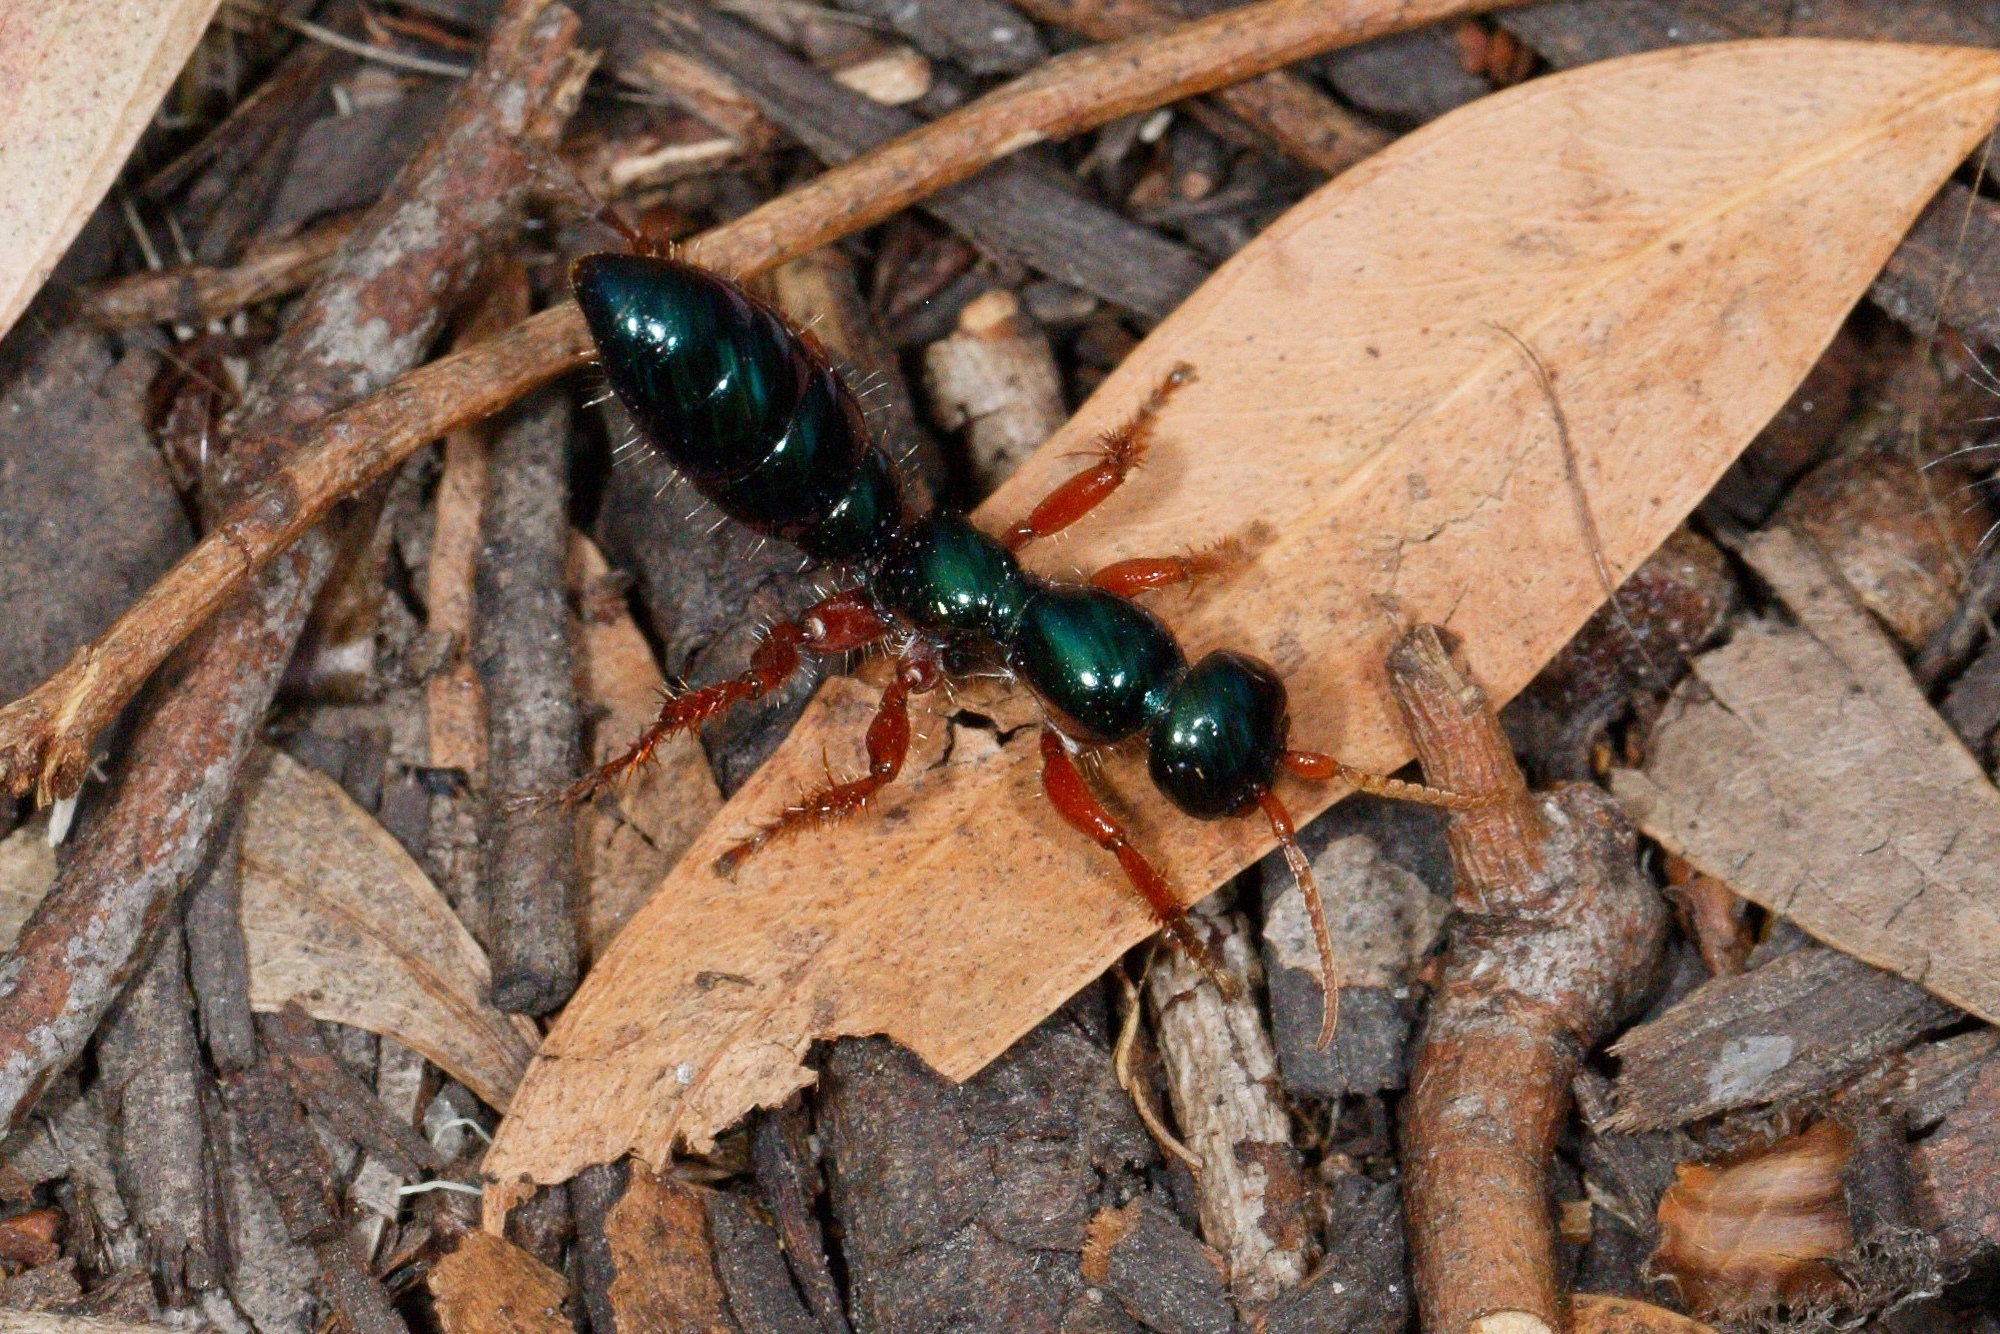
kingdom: Animalia
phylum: Arthropoda
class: Insecta
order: Hymenoptera
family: Tiphiidae
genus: Diamma
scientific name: Diamma
